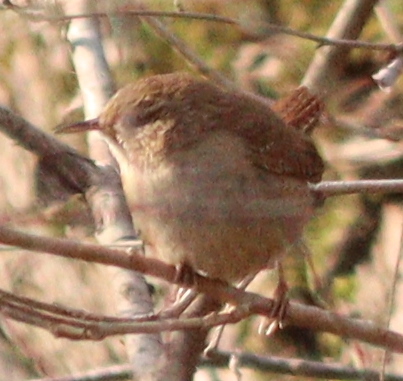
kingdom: Animalia
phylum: Chordata
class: Aves
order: Passeriformes
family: Troglodytidae
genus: Troglodytes
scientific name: Troglodytes troglodytes
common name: Eurasian wren
